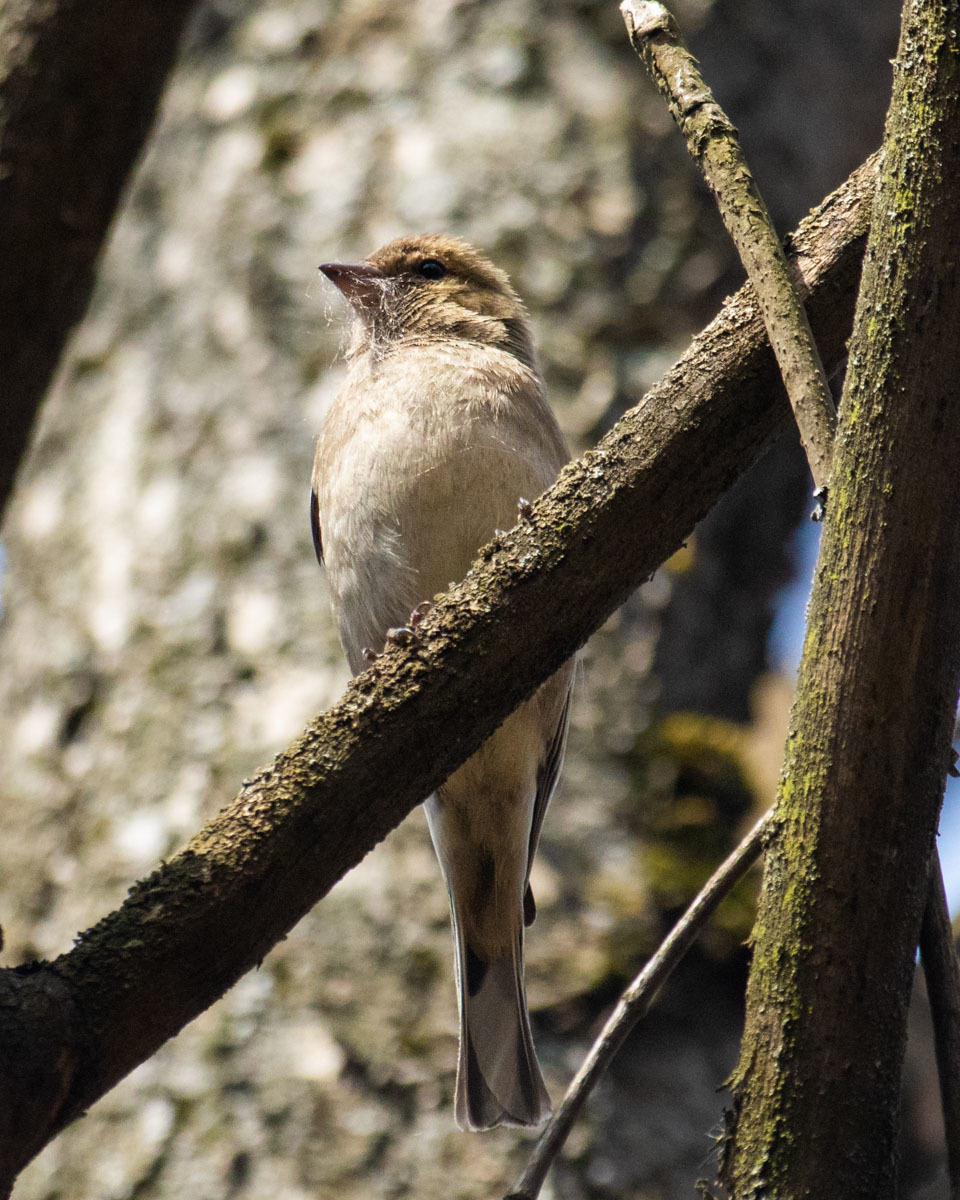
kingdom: Animalia
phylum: Chordata
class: Aves
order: Passeriformes
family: Fringillidae
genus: Fringilla
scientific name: Fringilla coelebs
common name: Common chaffinch
